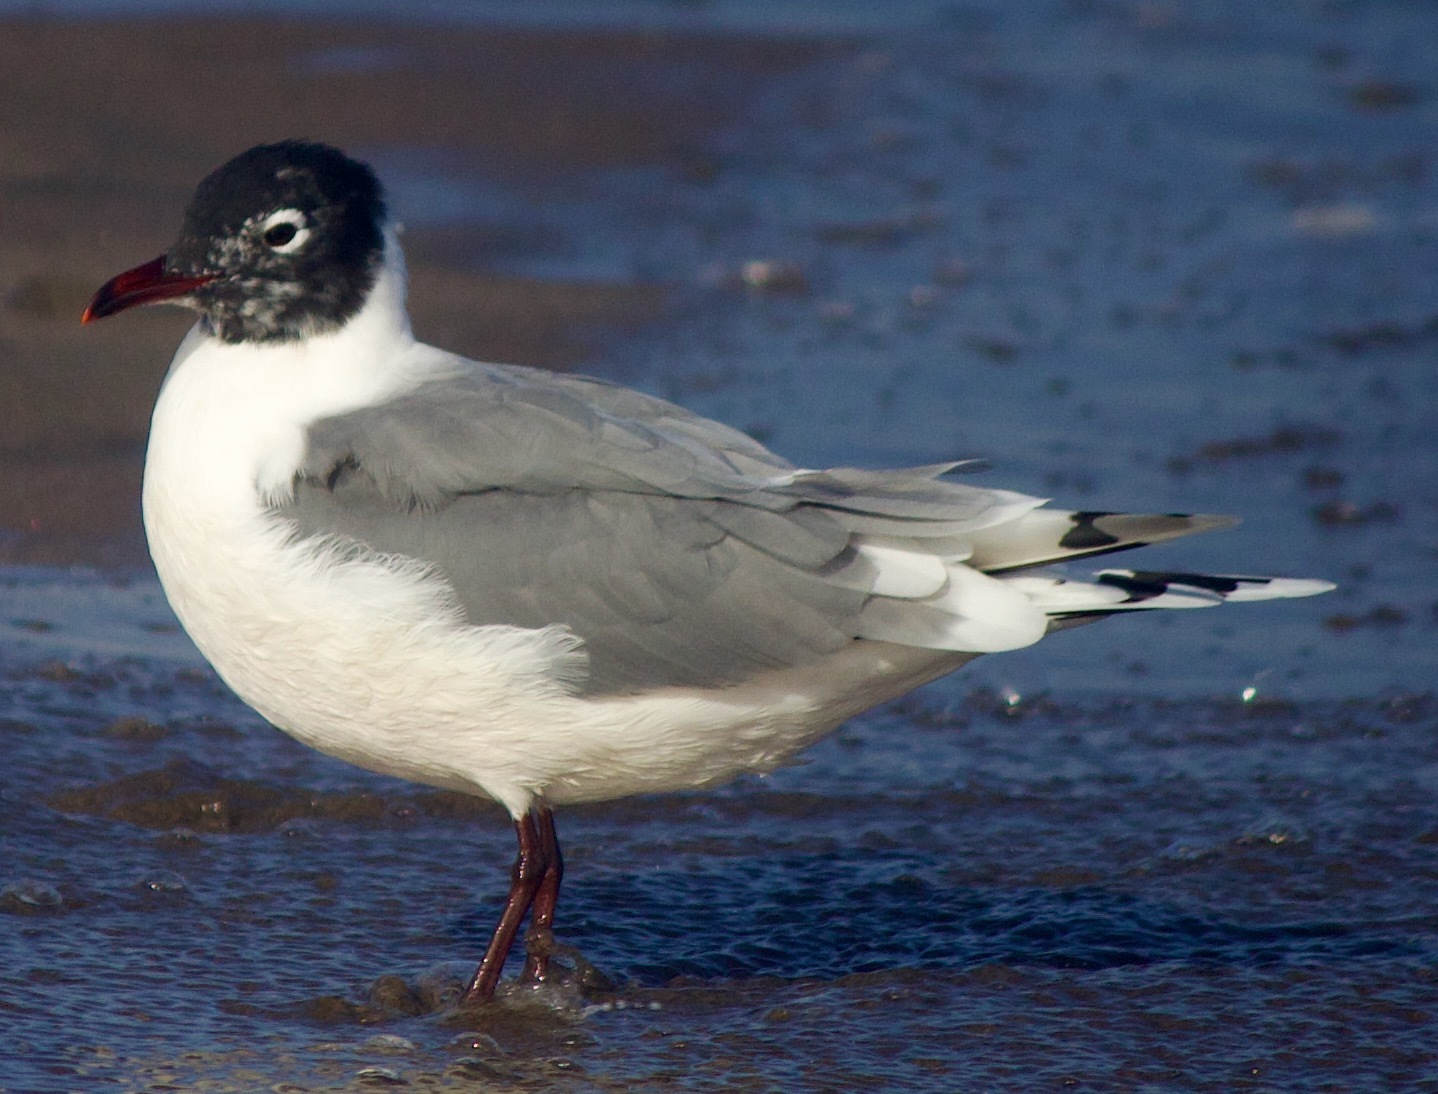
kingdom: Animalia
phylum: Chordata
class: Aves
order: Charadriiformes
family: Laridae
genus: Leucophaeus
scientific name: Leucophaeus pipixcan
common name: Franklin's gull
